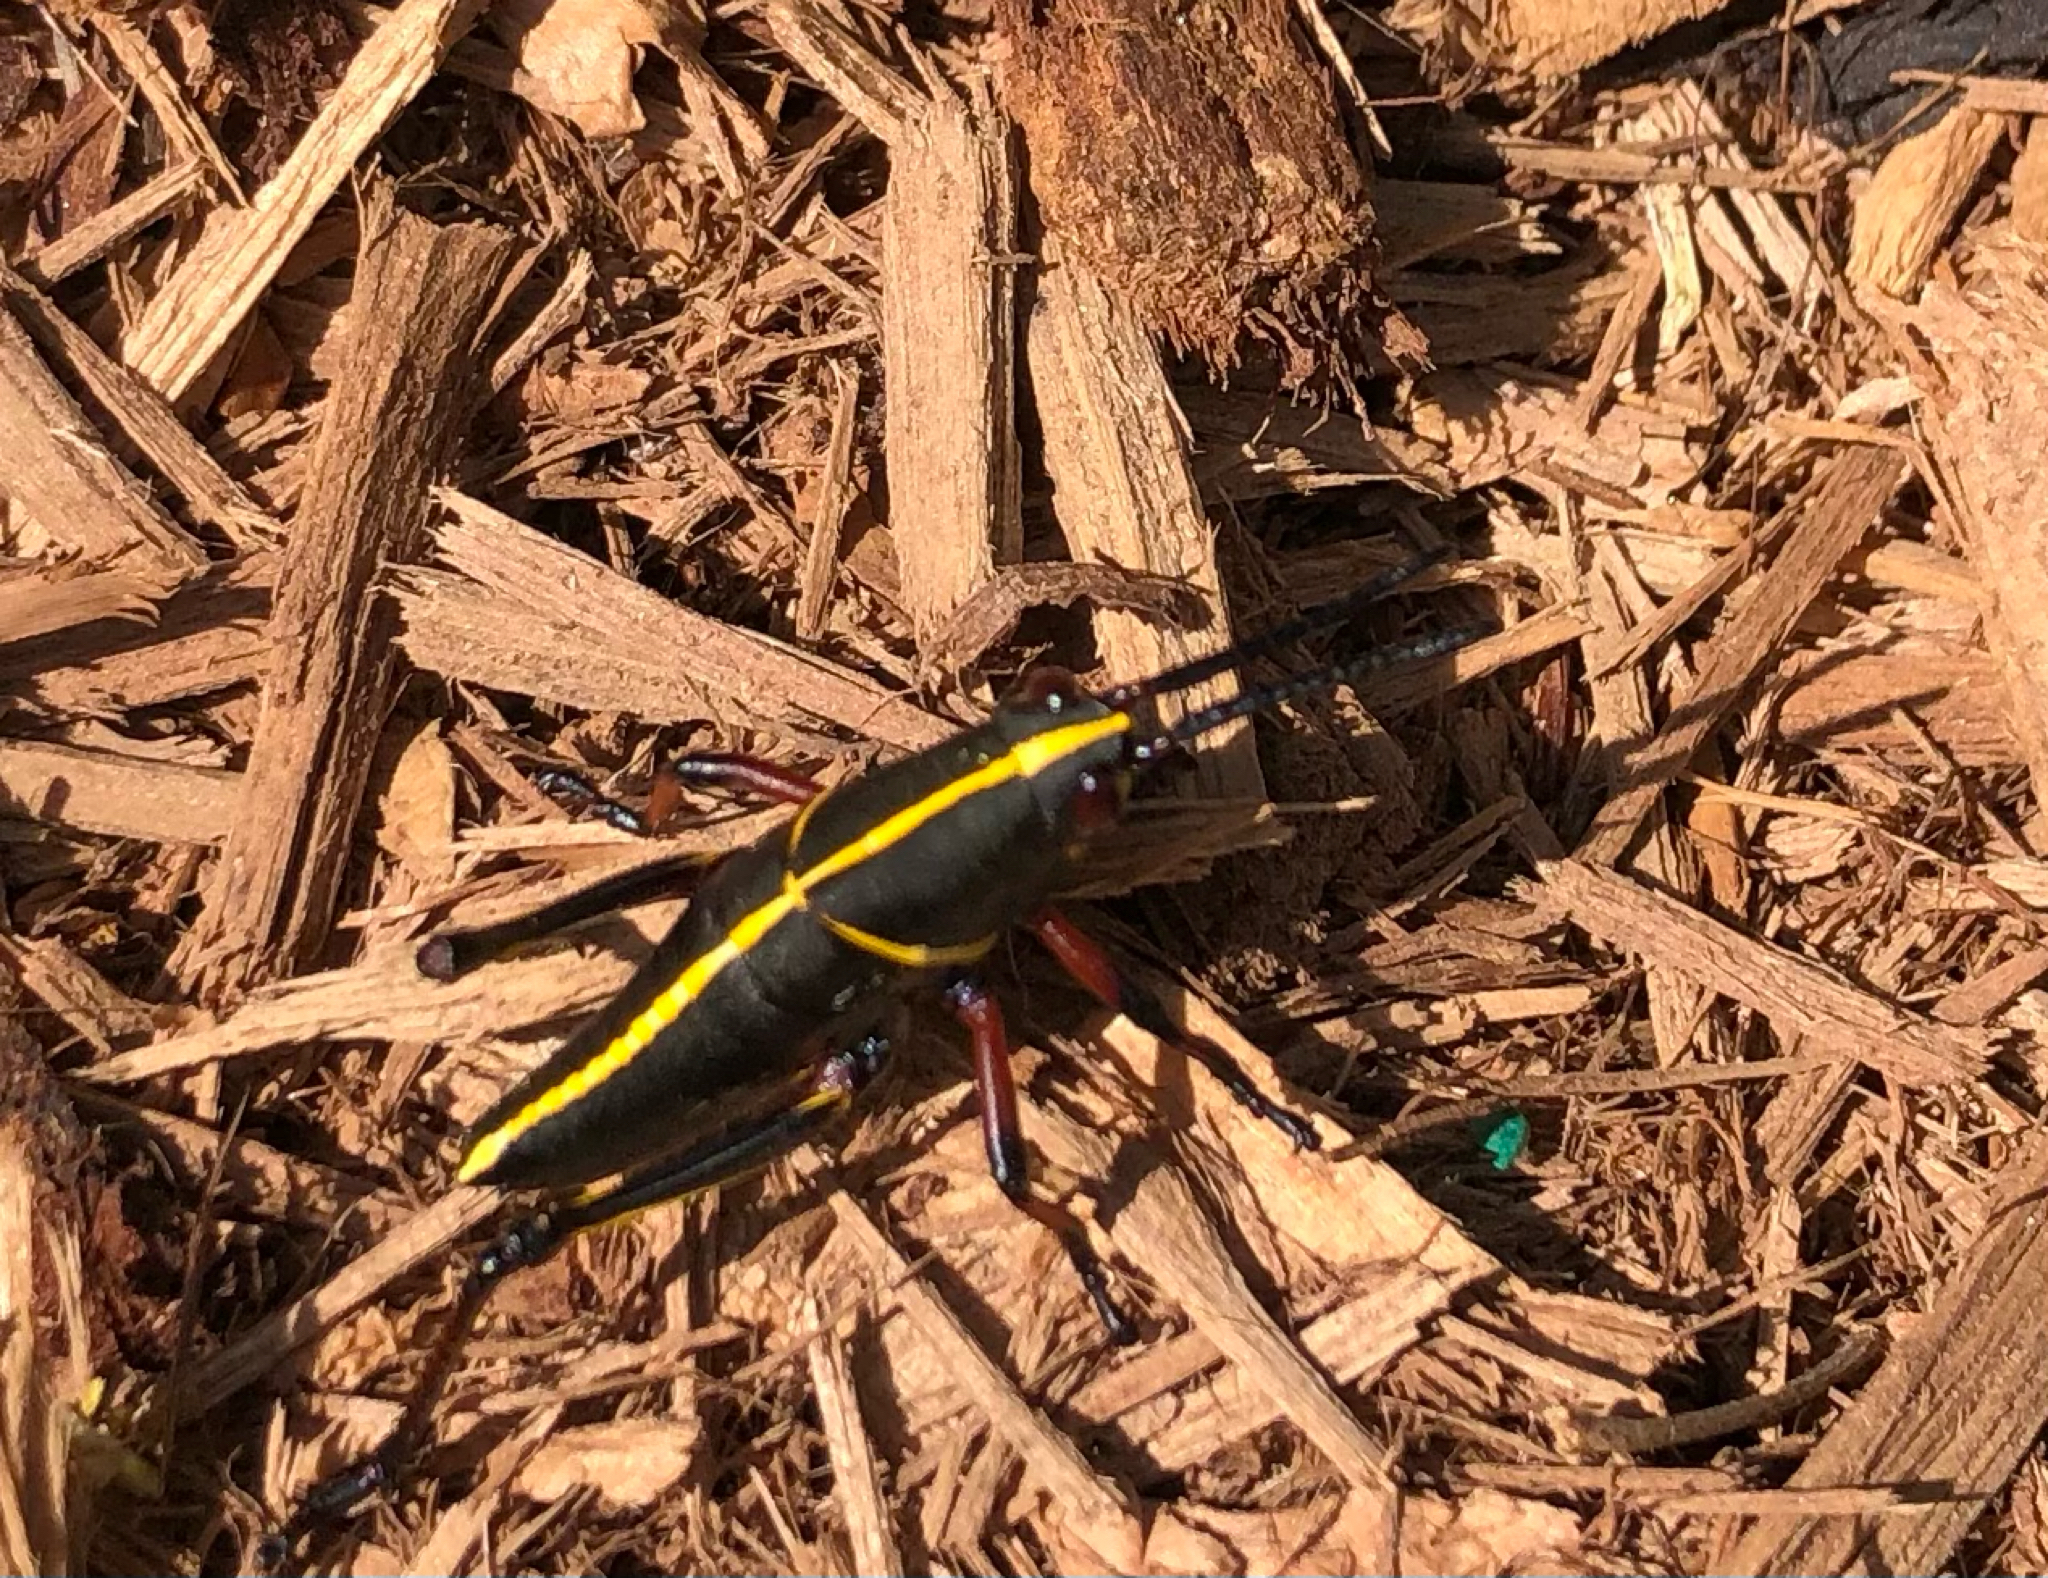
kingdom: Animalia
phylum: Arthropoda
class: Insecta
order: Orthoptera
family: Romaleidae
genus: Romalea
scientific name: Romalea microptera
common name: Eastern lubber grasshopper
